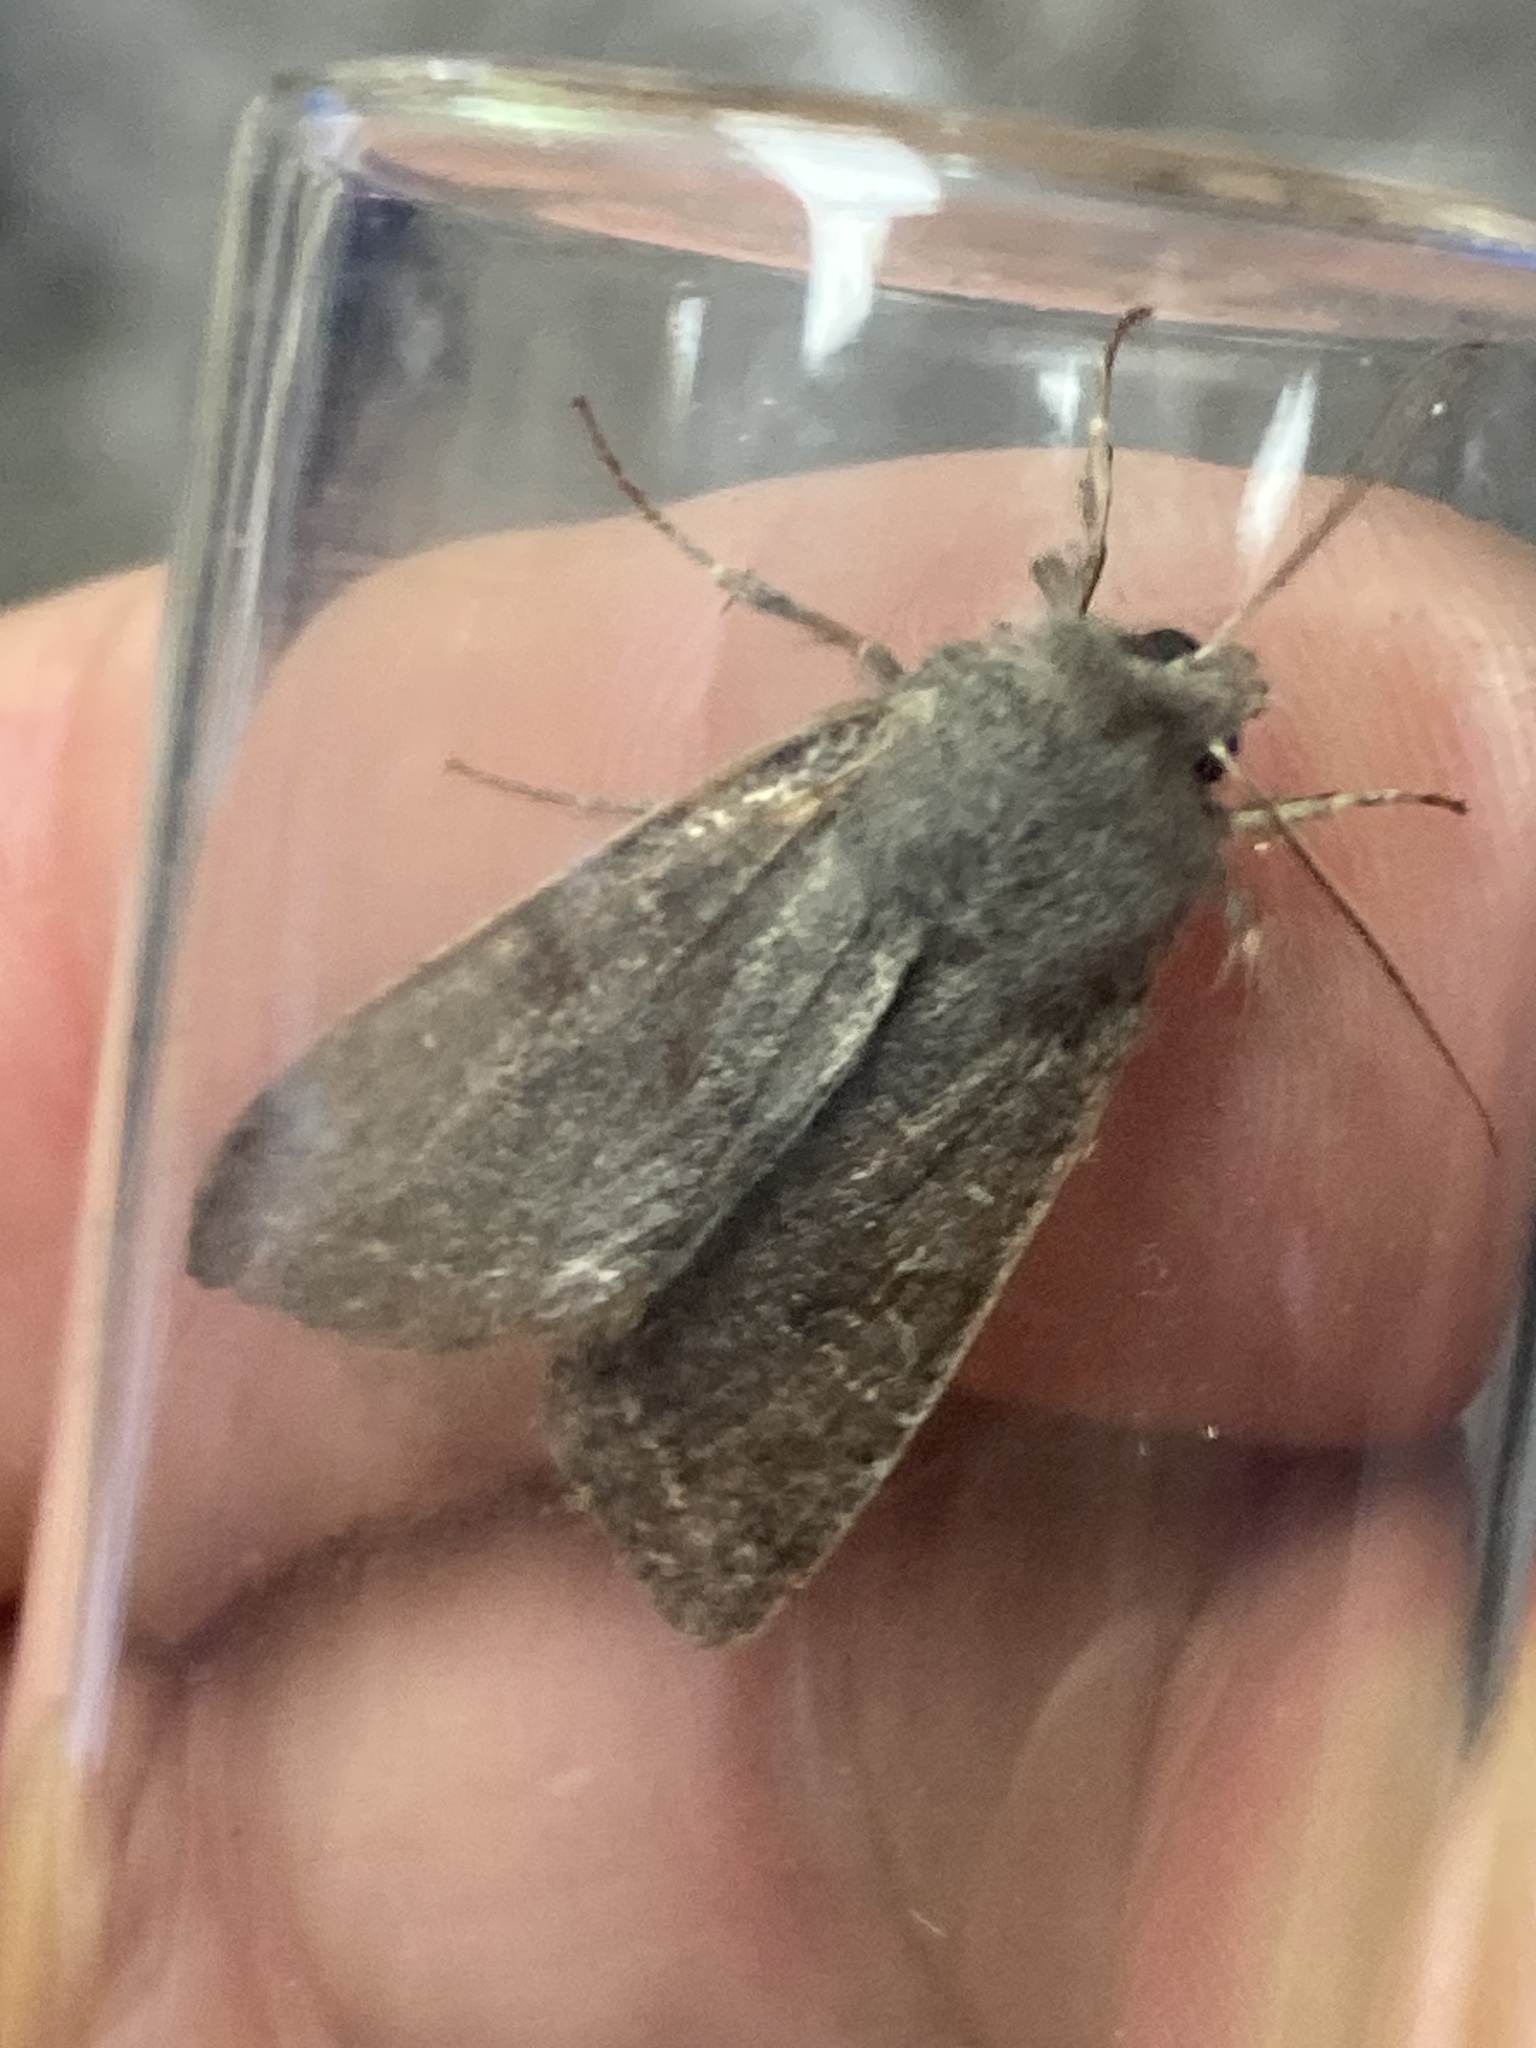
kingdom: Animalia
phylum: Arthropoda
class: Insecta
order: Lepidoptera
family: Noctuidae
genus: Orthosia
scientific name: Orthosia incerta
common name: Clouded drab
